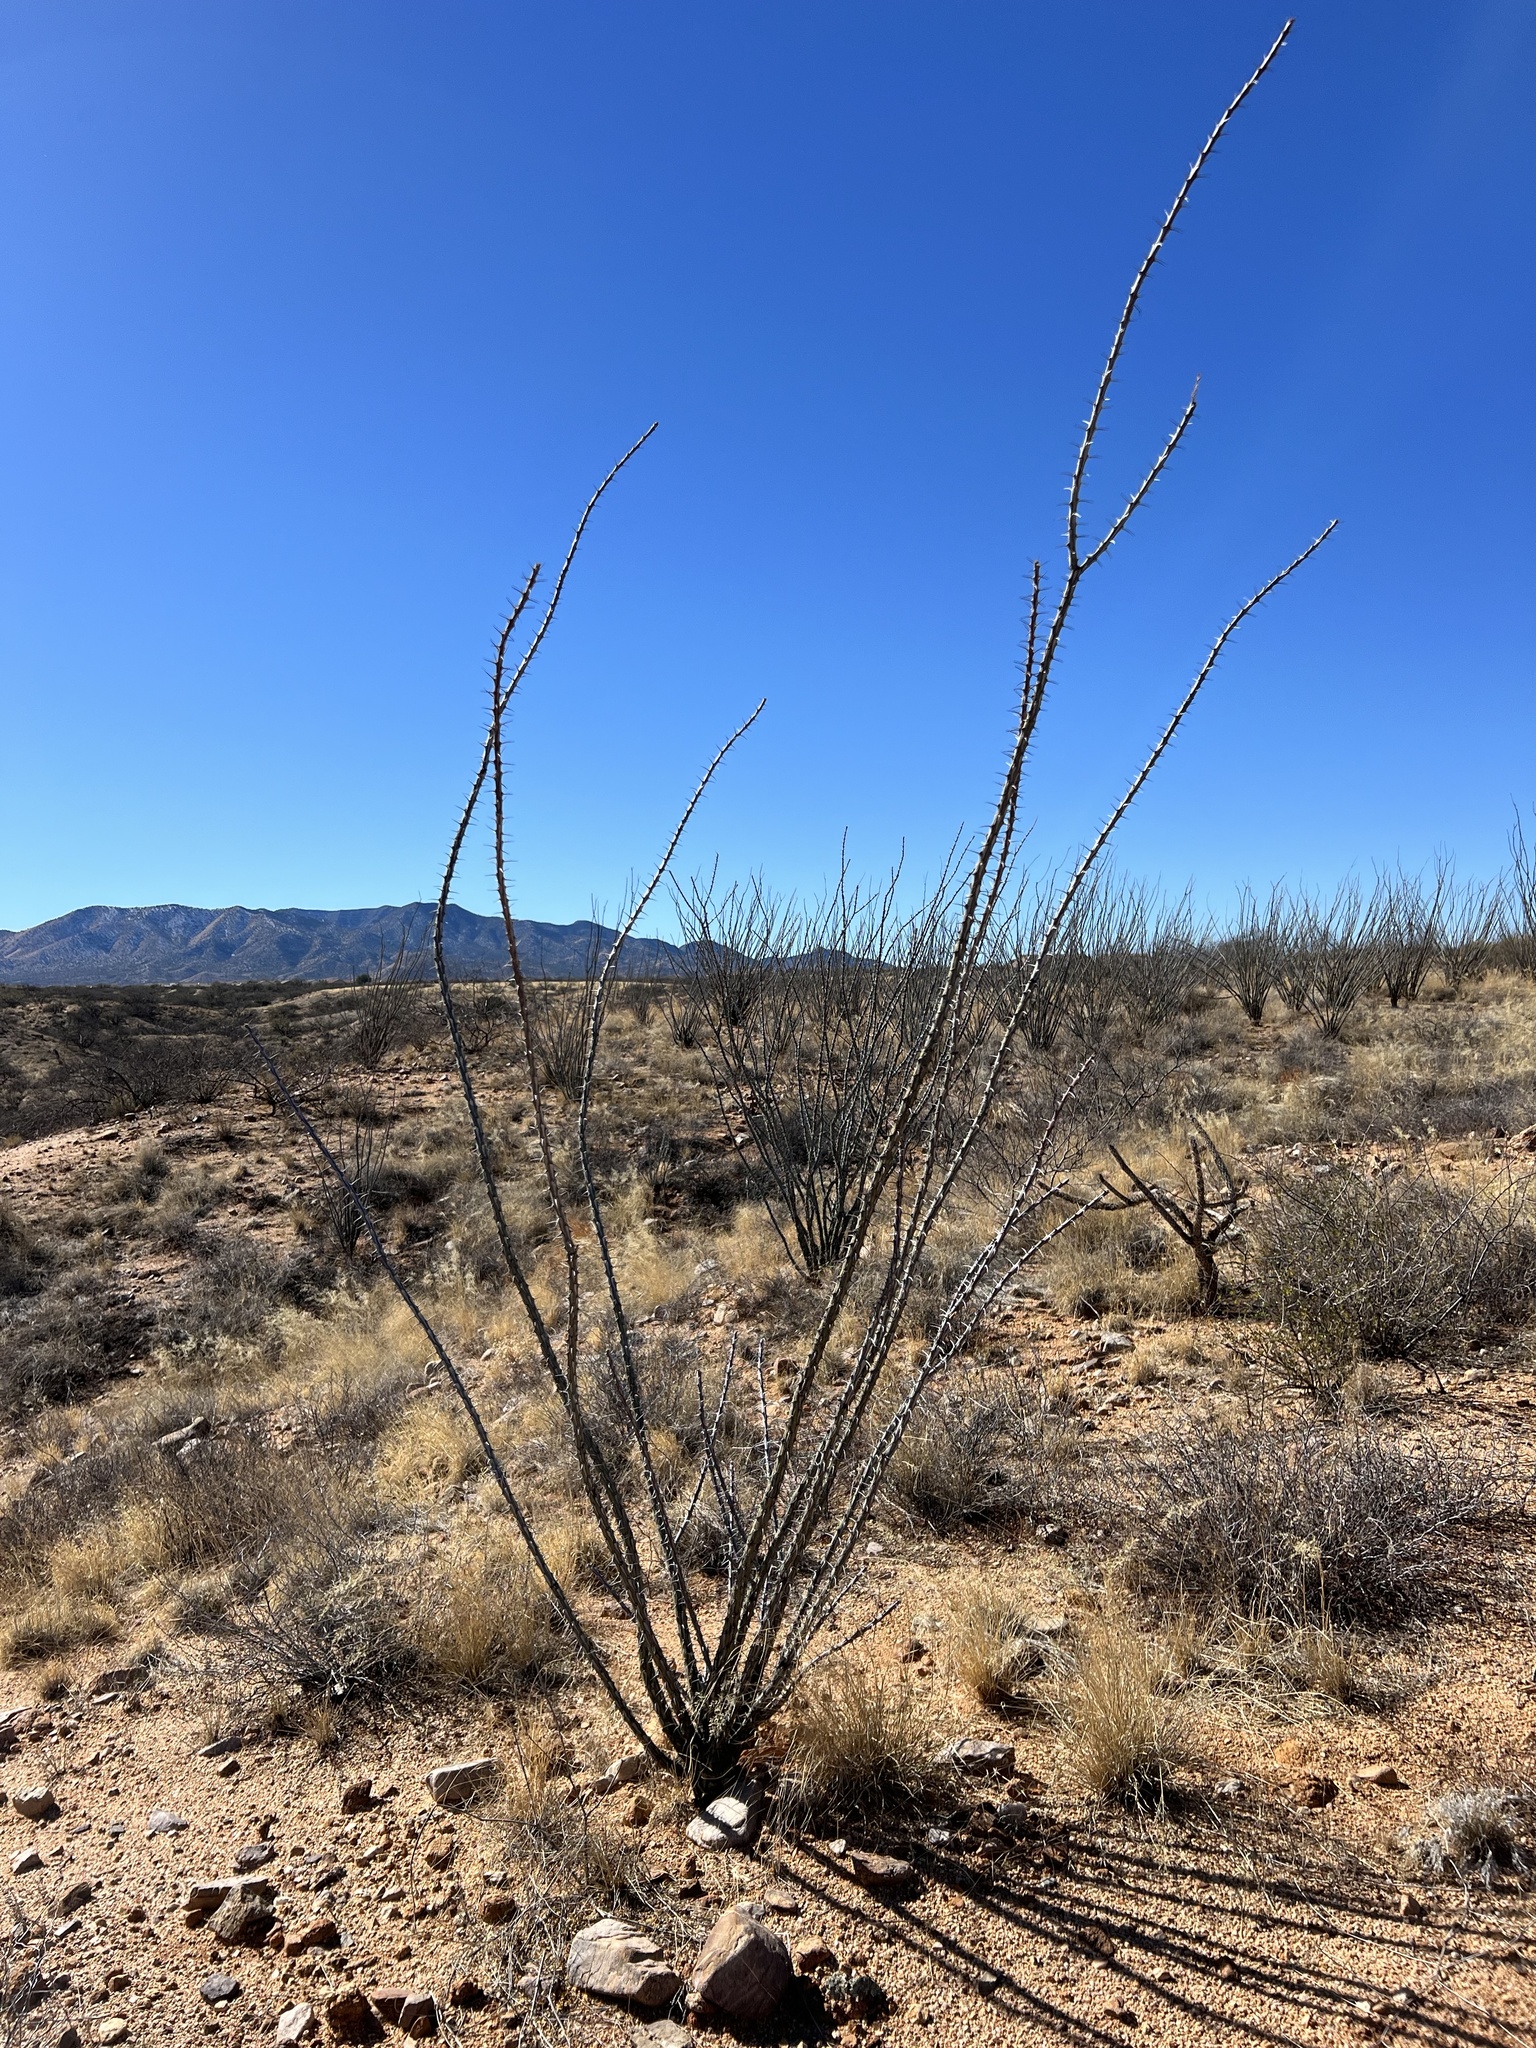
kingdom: Plantae
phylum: Tracheophyta
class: Magnoliopsida
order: Ericales
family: Fouquieriaceae
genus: Fouquieria
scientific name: Fouquieria splendens
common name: Vine-cactus
